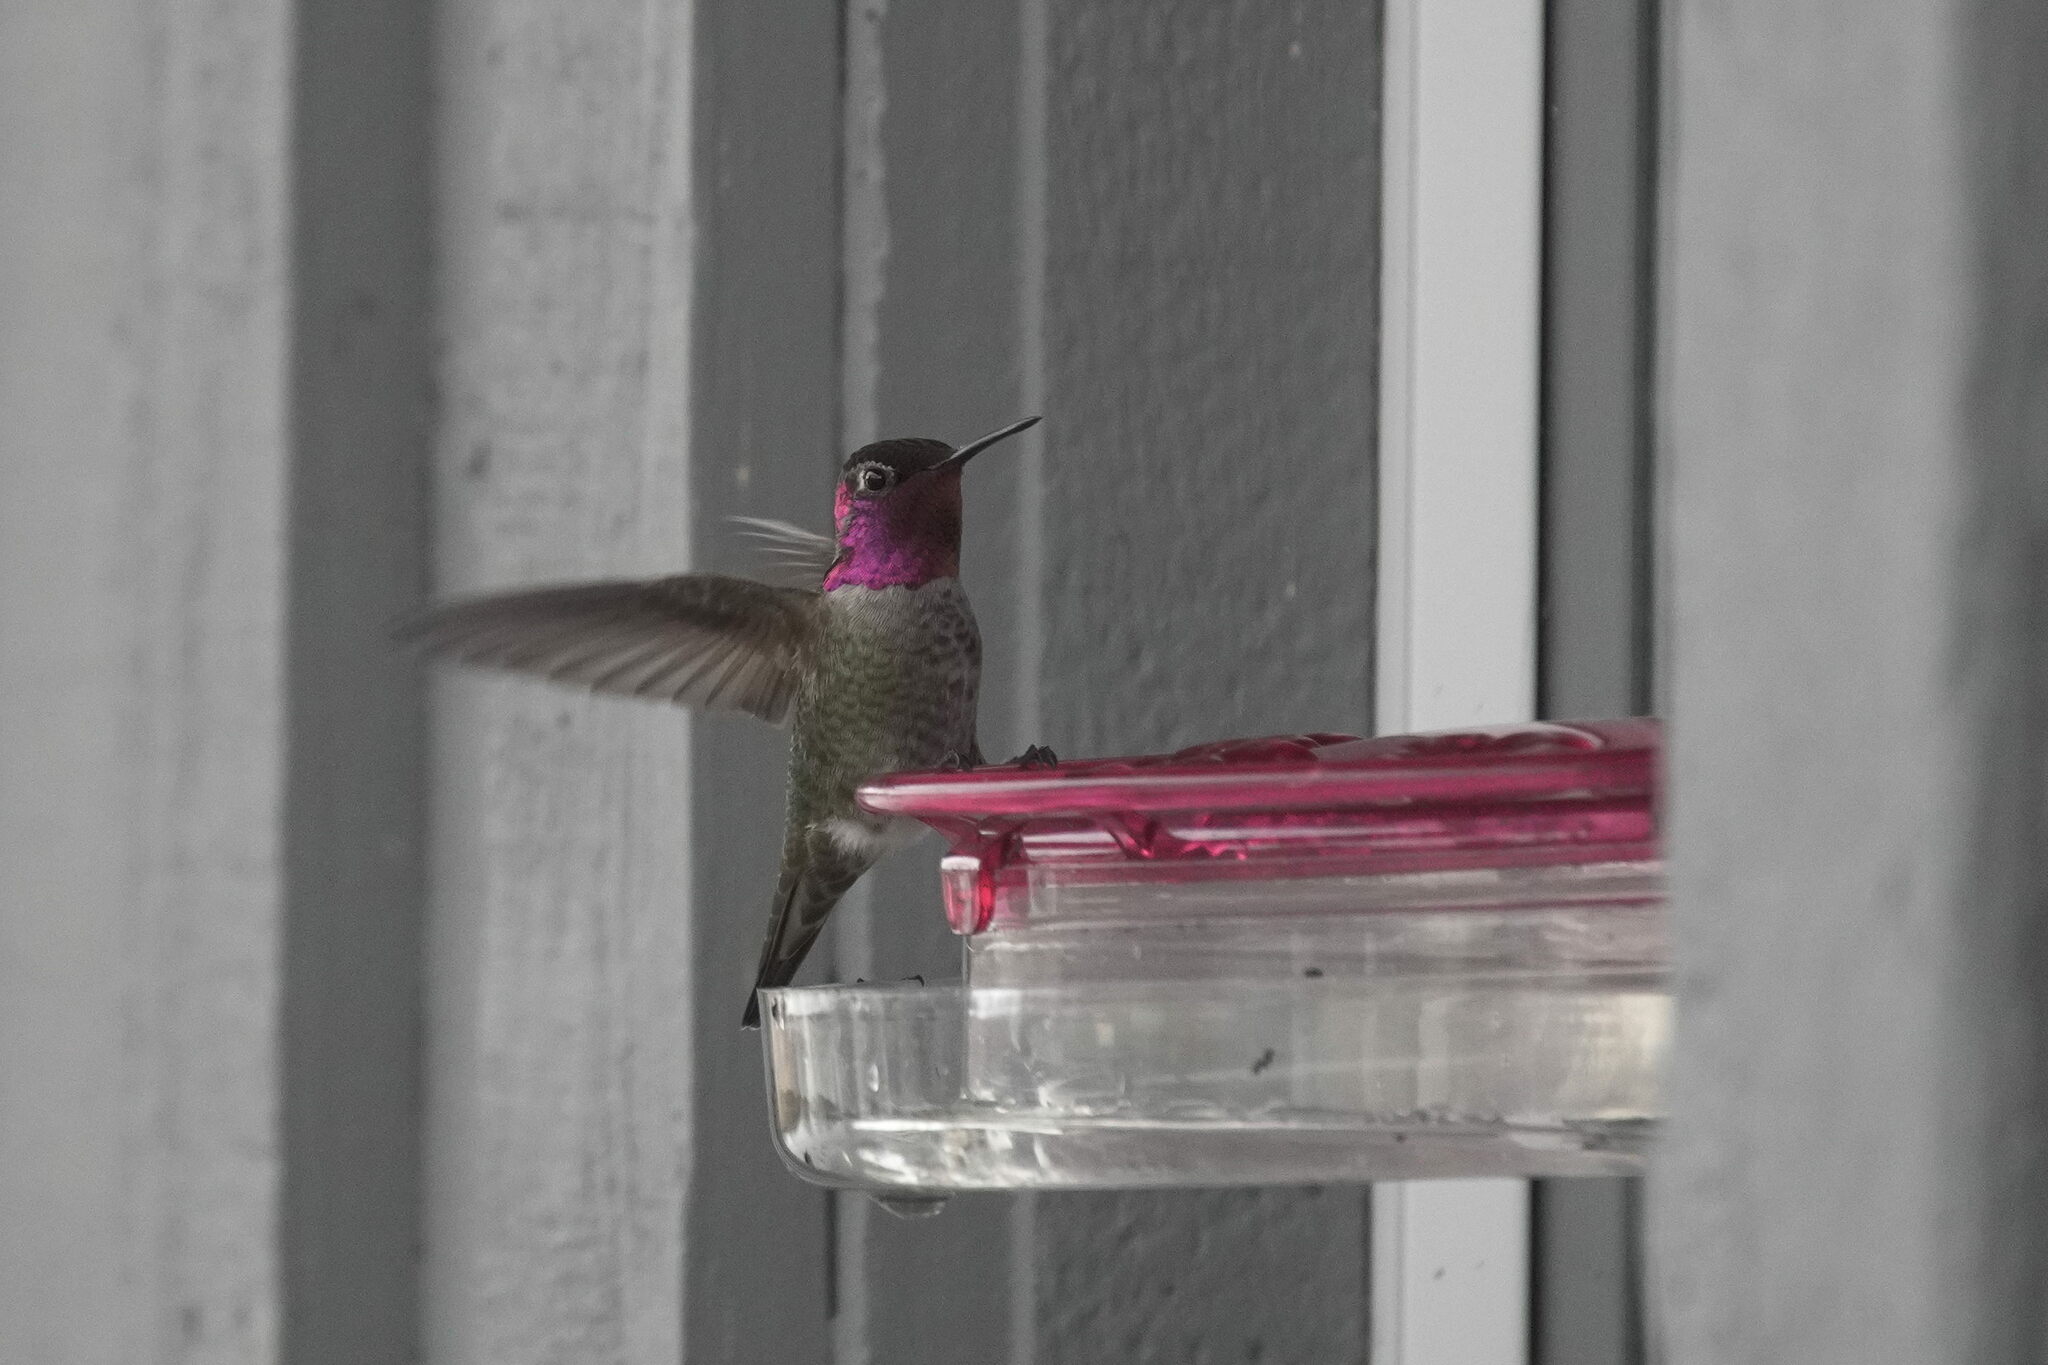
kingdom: Animalia
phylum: Chordata
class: Aves
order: Apodiformes
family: Trochilidae
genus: Calypte
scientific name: Calypte anna
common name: Anna's hummingbird
